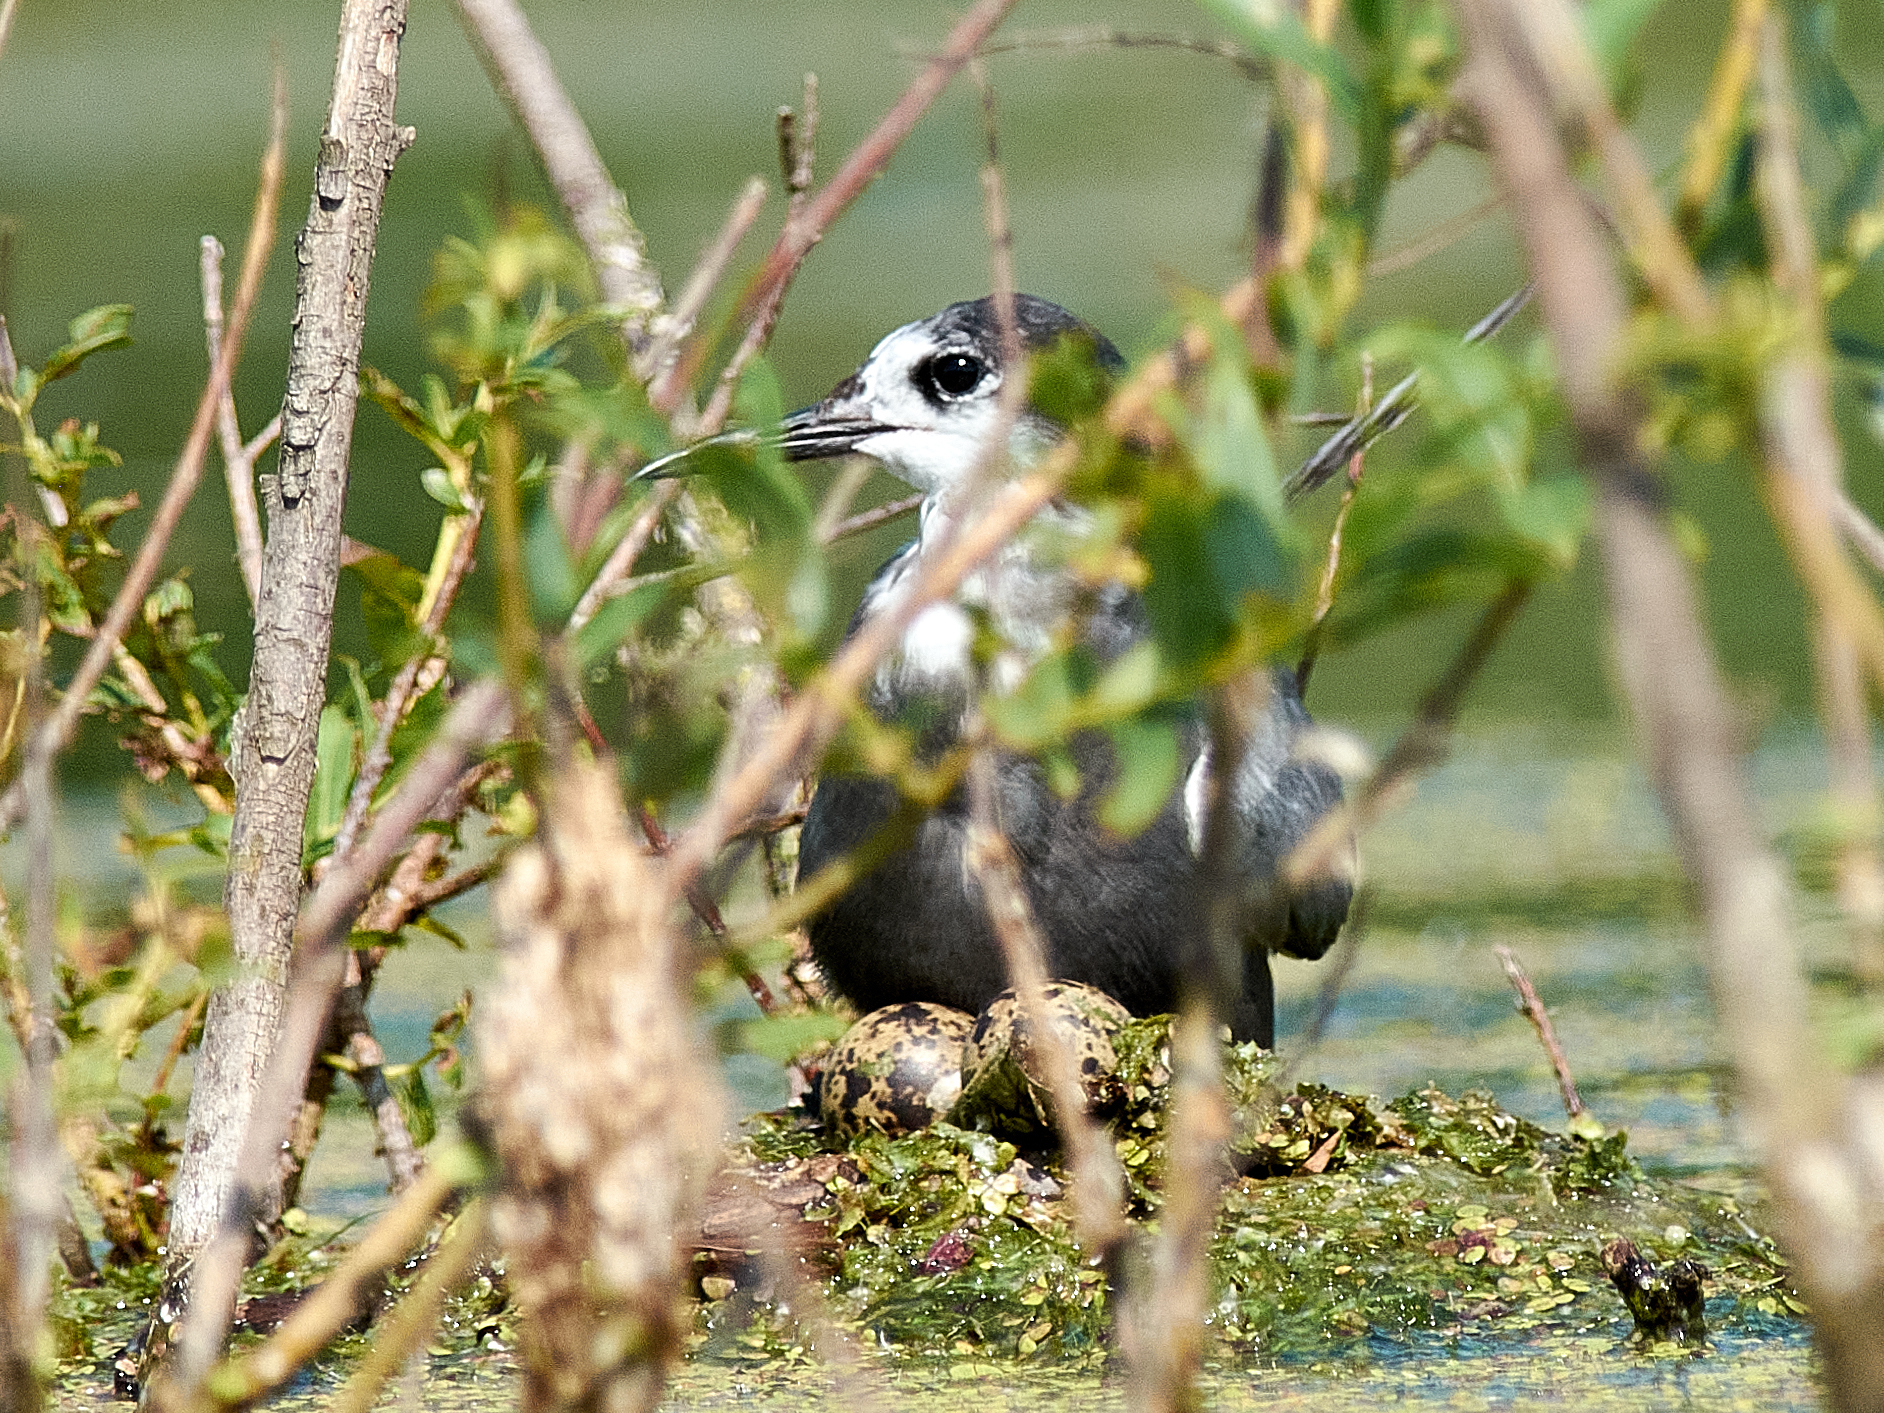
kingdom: Animalia
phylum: Chordata
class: Aves
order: Charadriiformes
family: Laridae
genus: Chlidonias
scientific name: Chlidonias niger
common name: Black tern
